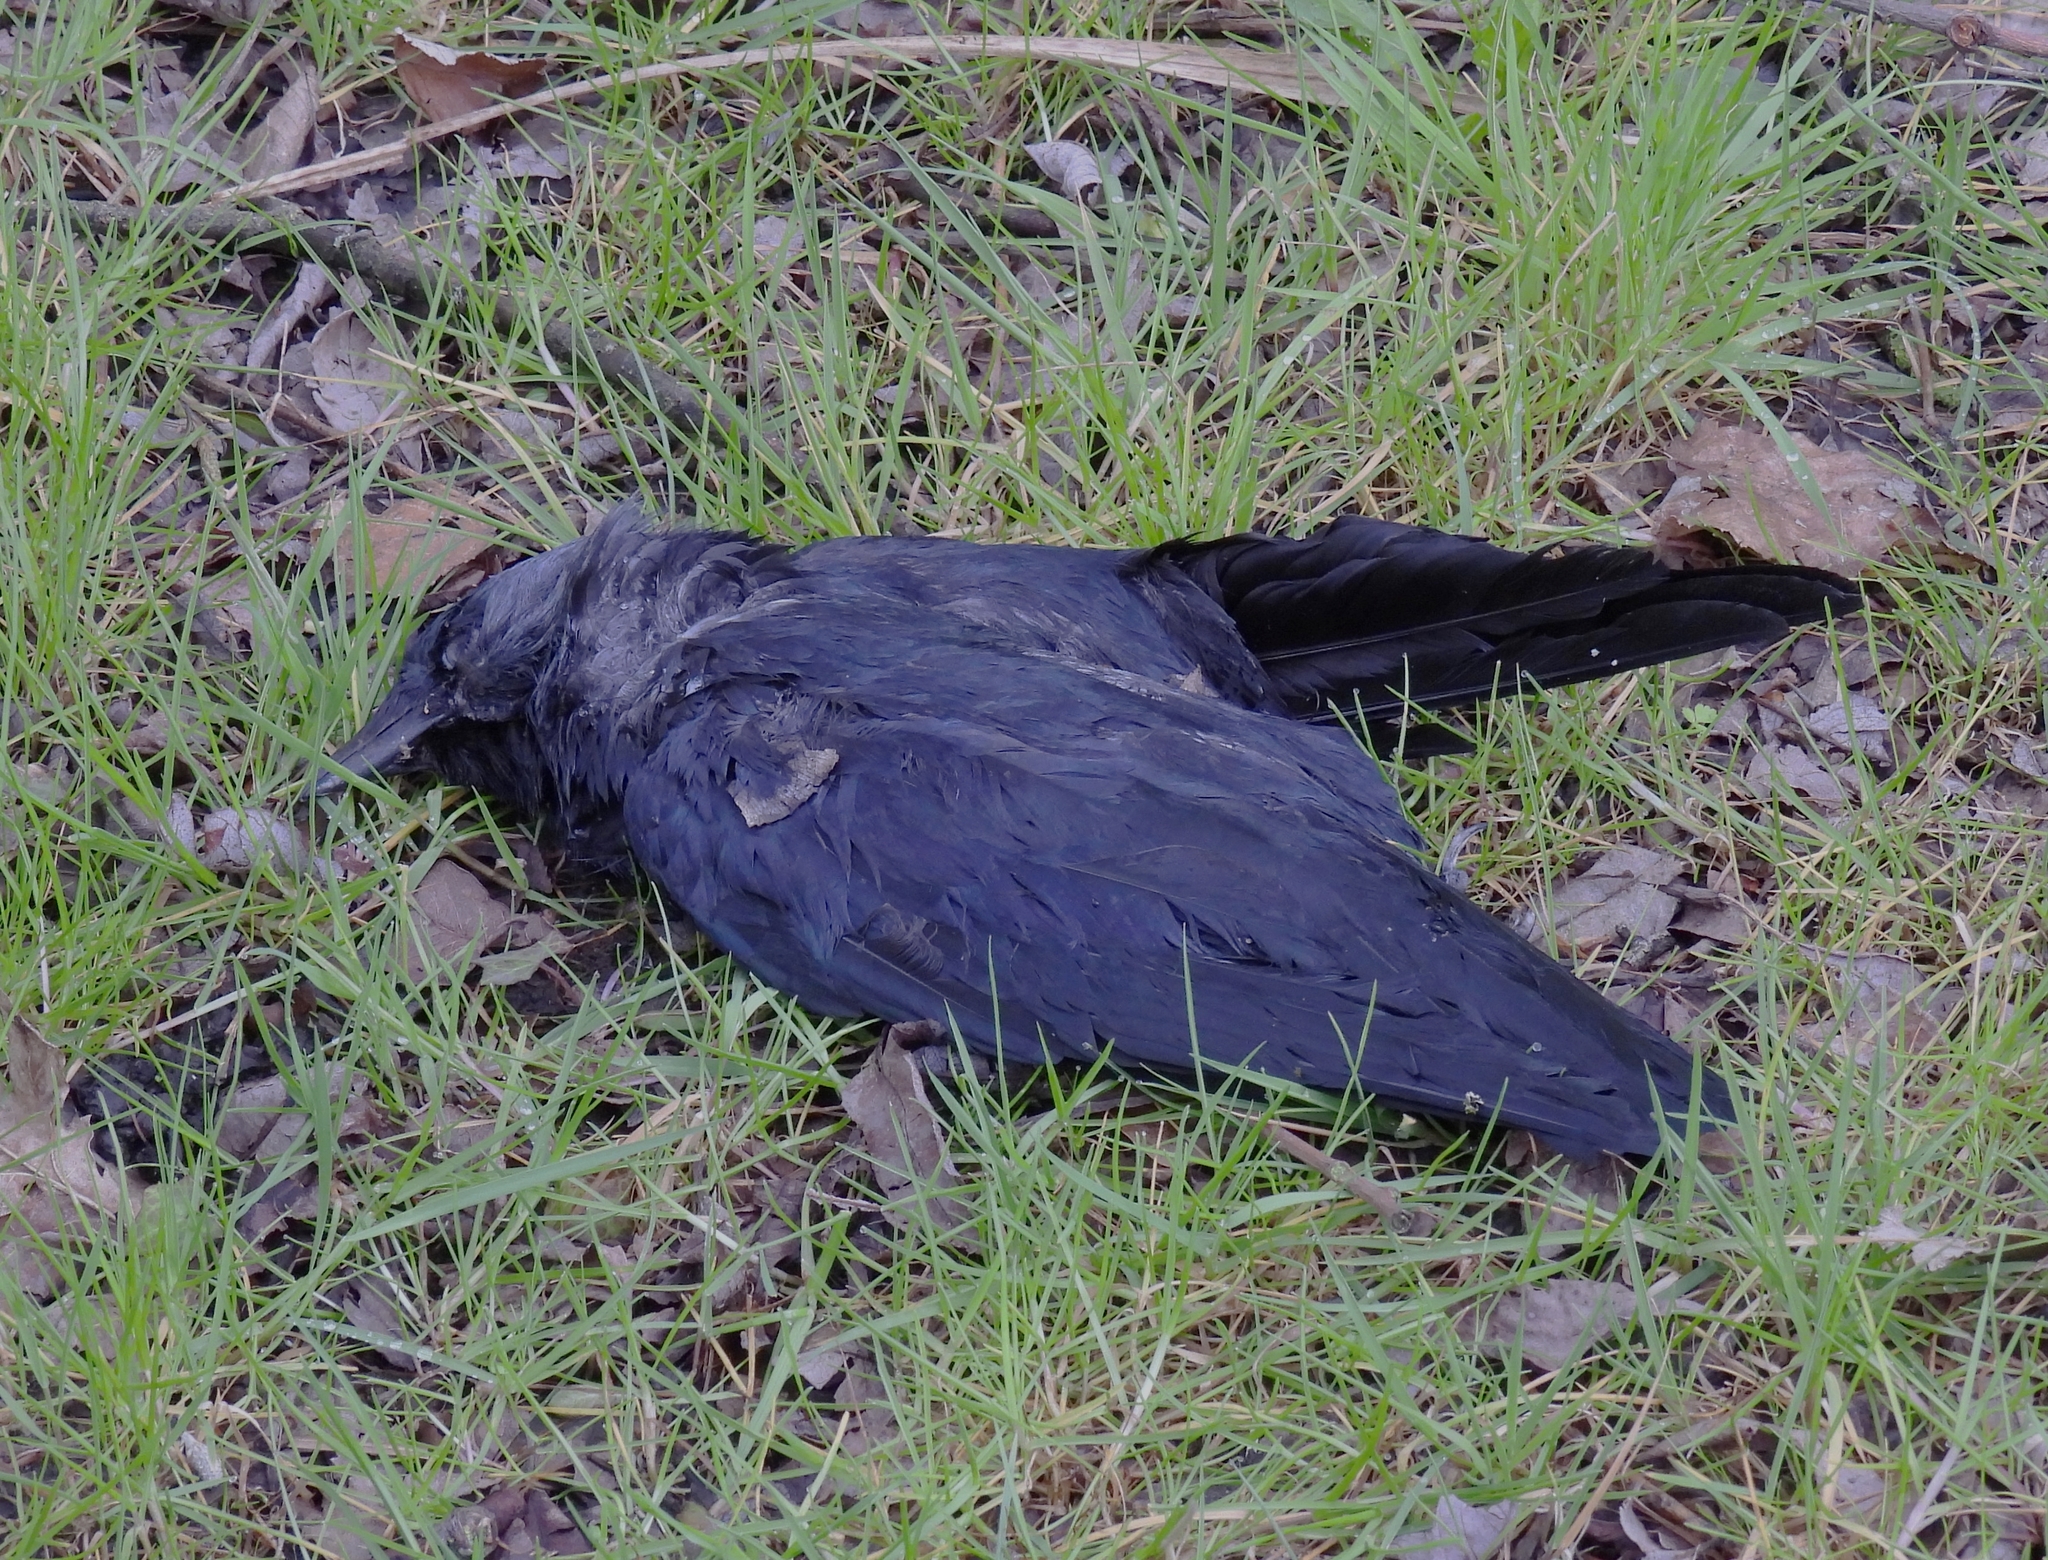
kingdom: Animalia
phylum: Chordata
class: Aves
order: Passeriformes
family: Corvidae
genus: Coloeus
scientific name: Coloeus monedula
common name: Western jackdaw
